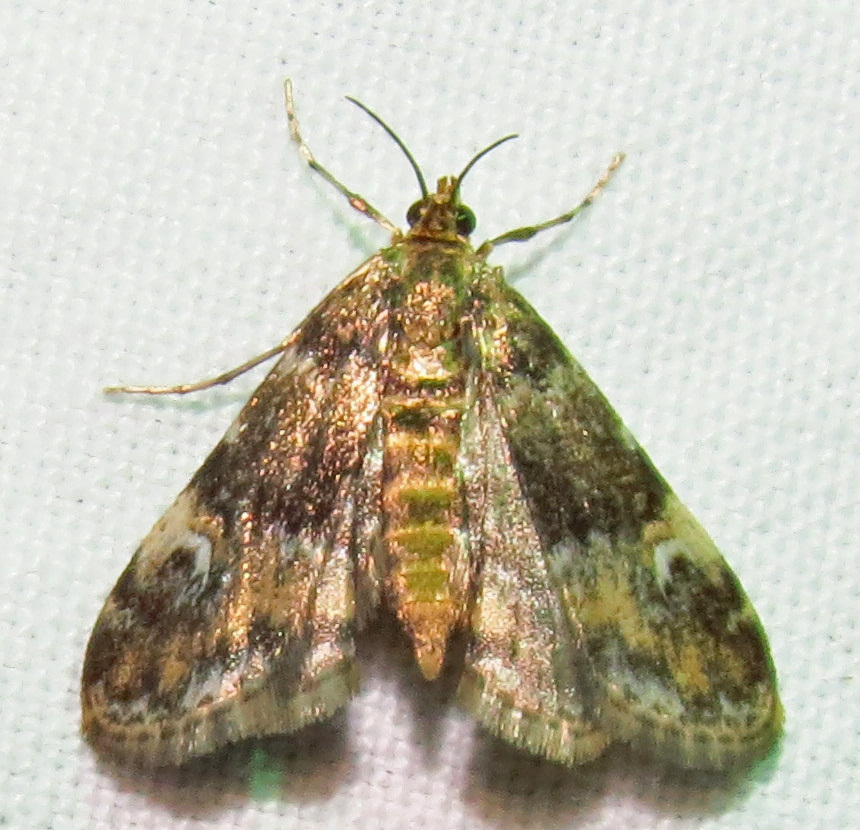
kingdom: Animalia
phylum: Arthropoda
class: Insecta
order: Lepidoptera
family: Crambidae
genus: Elophila
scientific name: Elophila obliteralis
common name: Waterlily leafcutter moth
